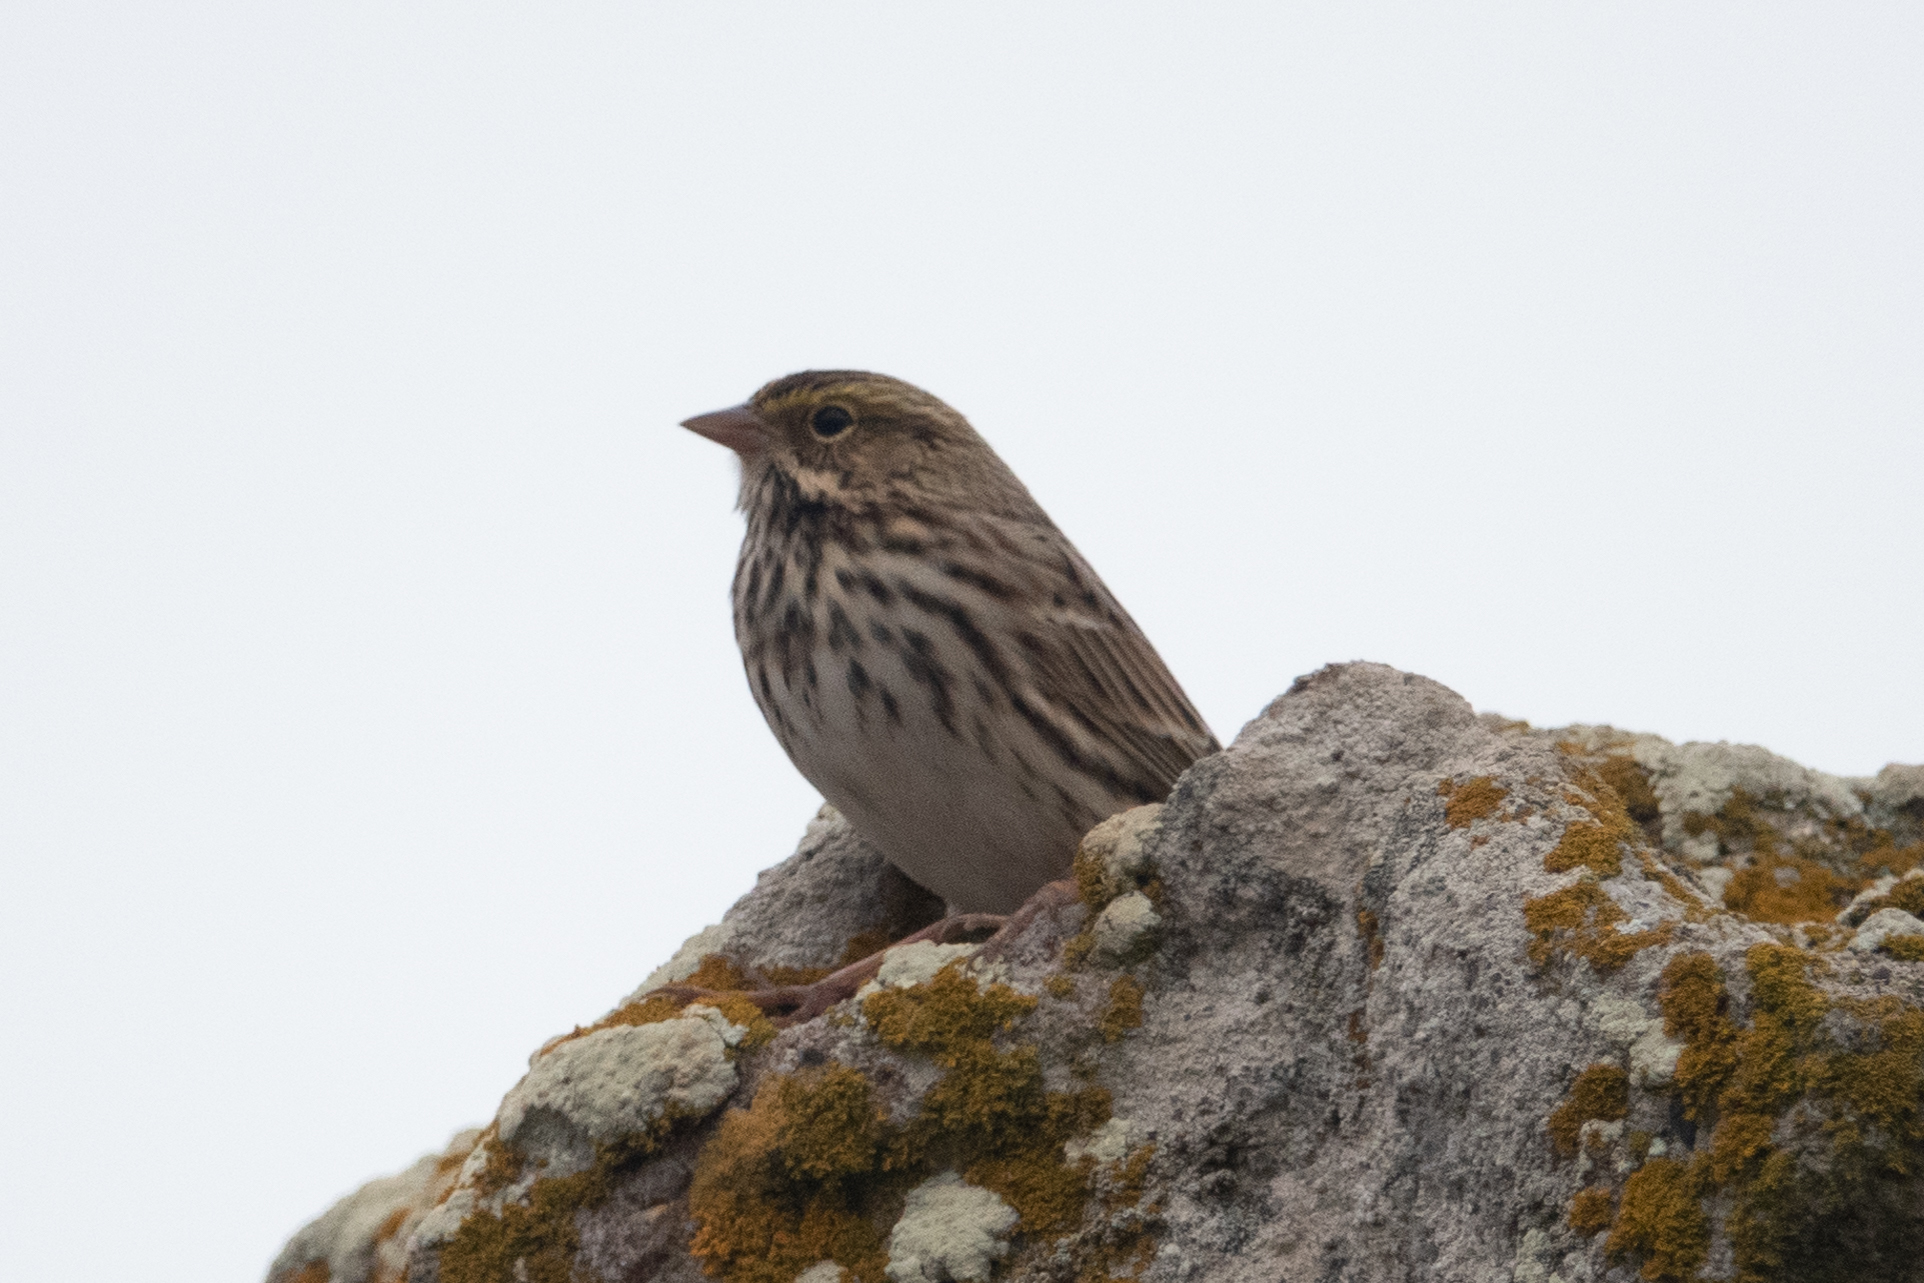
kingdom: Animalia
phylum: Chordata
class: Aves
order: Passeriformes
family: Passerellidae
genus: Passerculus
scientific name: Passerculus sandwichensis
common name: Savannah sparrow
